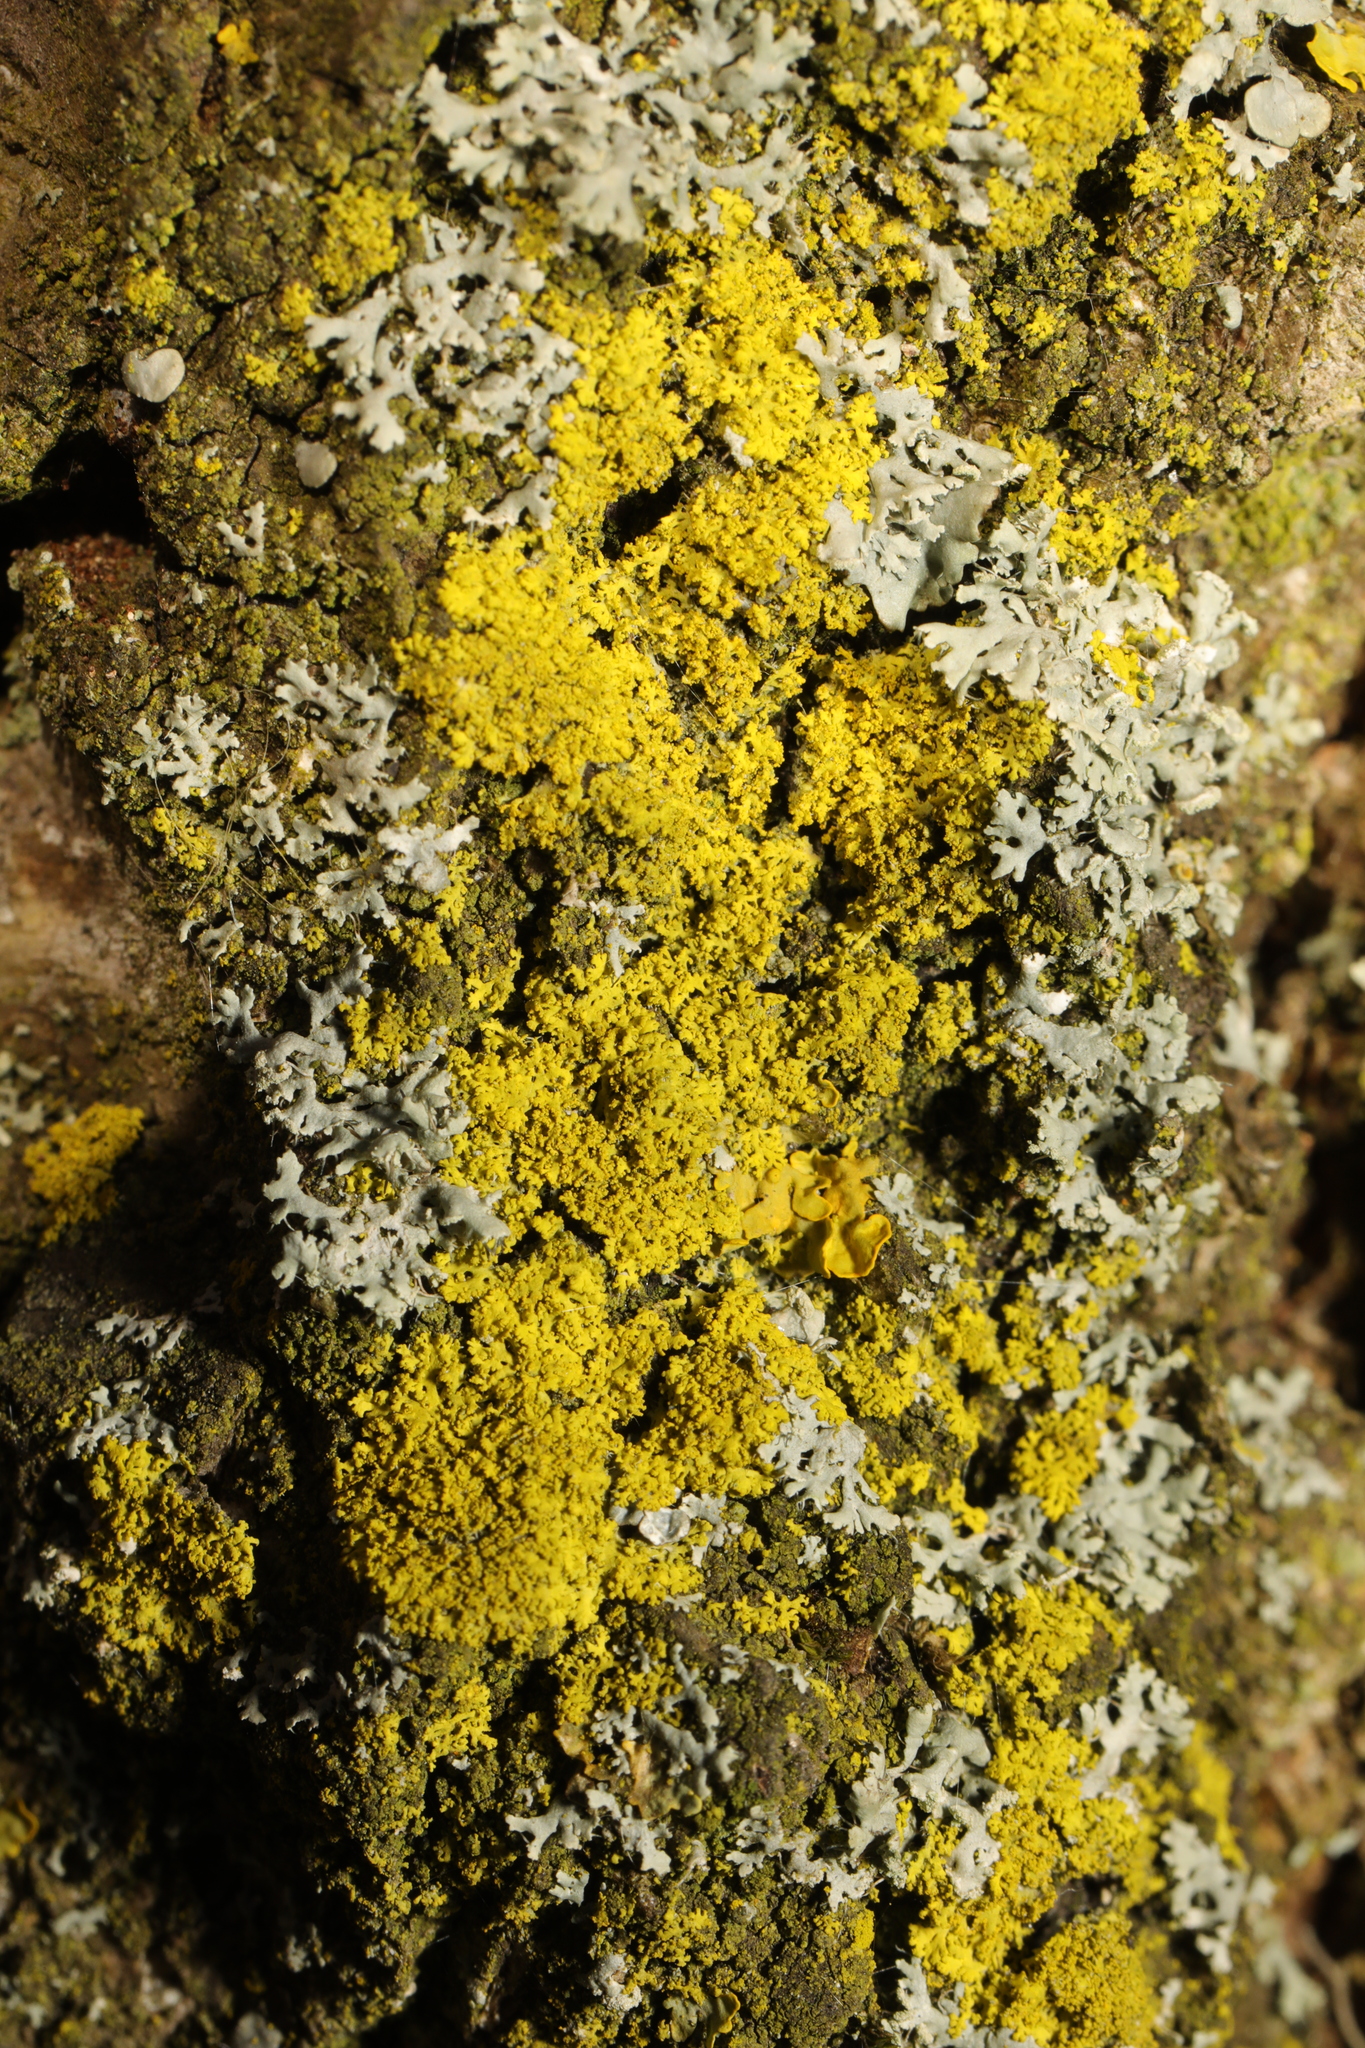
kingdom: Fungi
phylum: Ascomycota
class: Candelariomycetes
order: Candelariales
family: Candelariaceae
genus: Candelaria
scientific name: Candelaria concolor
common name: Candleflame lichen
